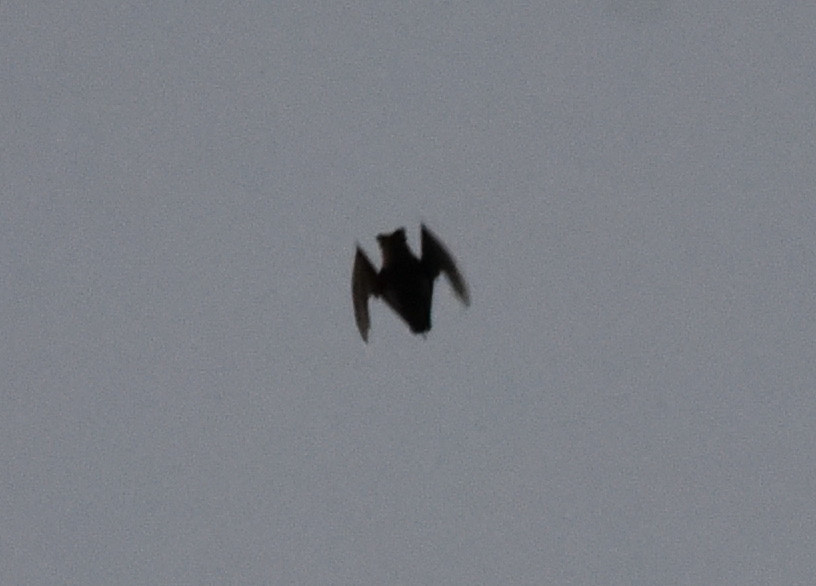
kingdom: Animalia
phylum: Chordata
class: Mammalia
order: Chiroptera
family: Molossidae
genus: Tadarida
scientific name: Tadarida brasiliensis
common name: Mexican free-tailed bat
